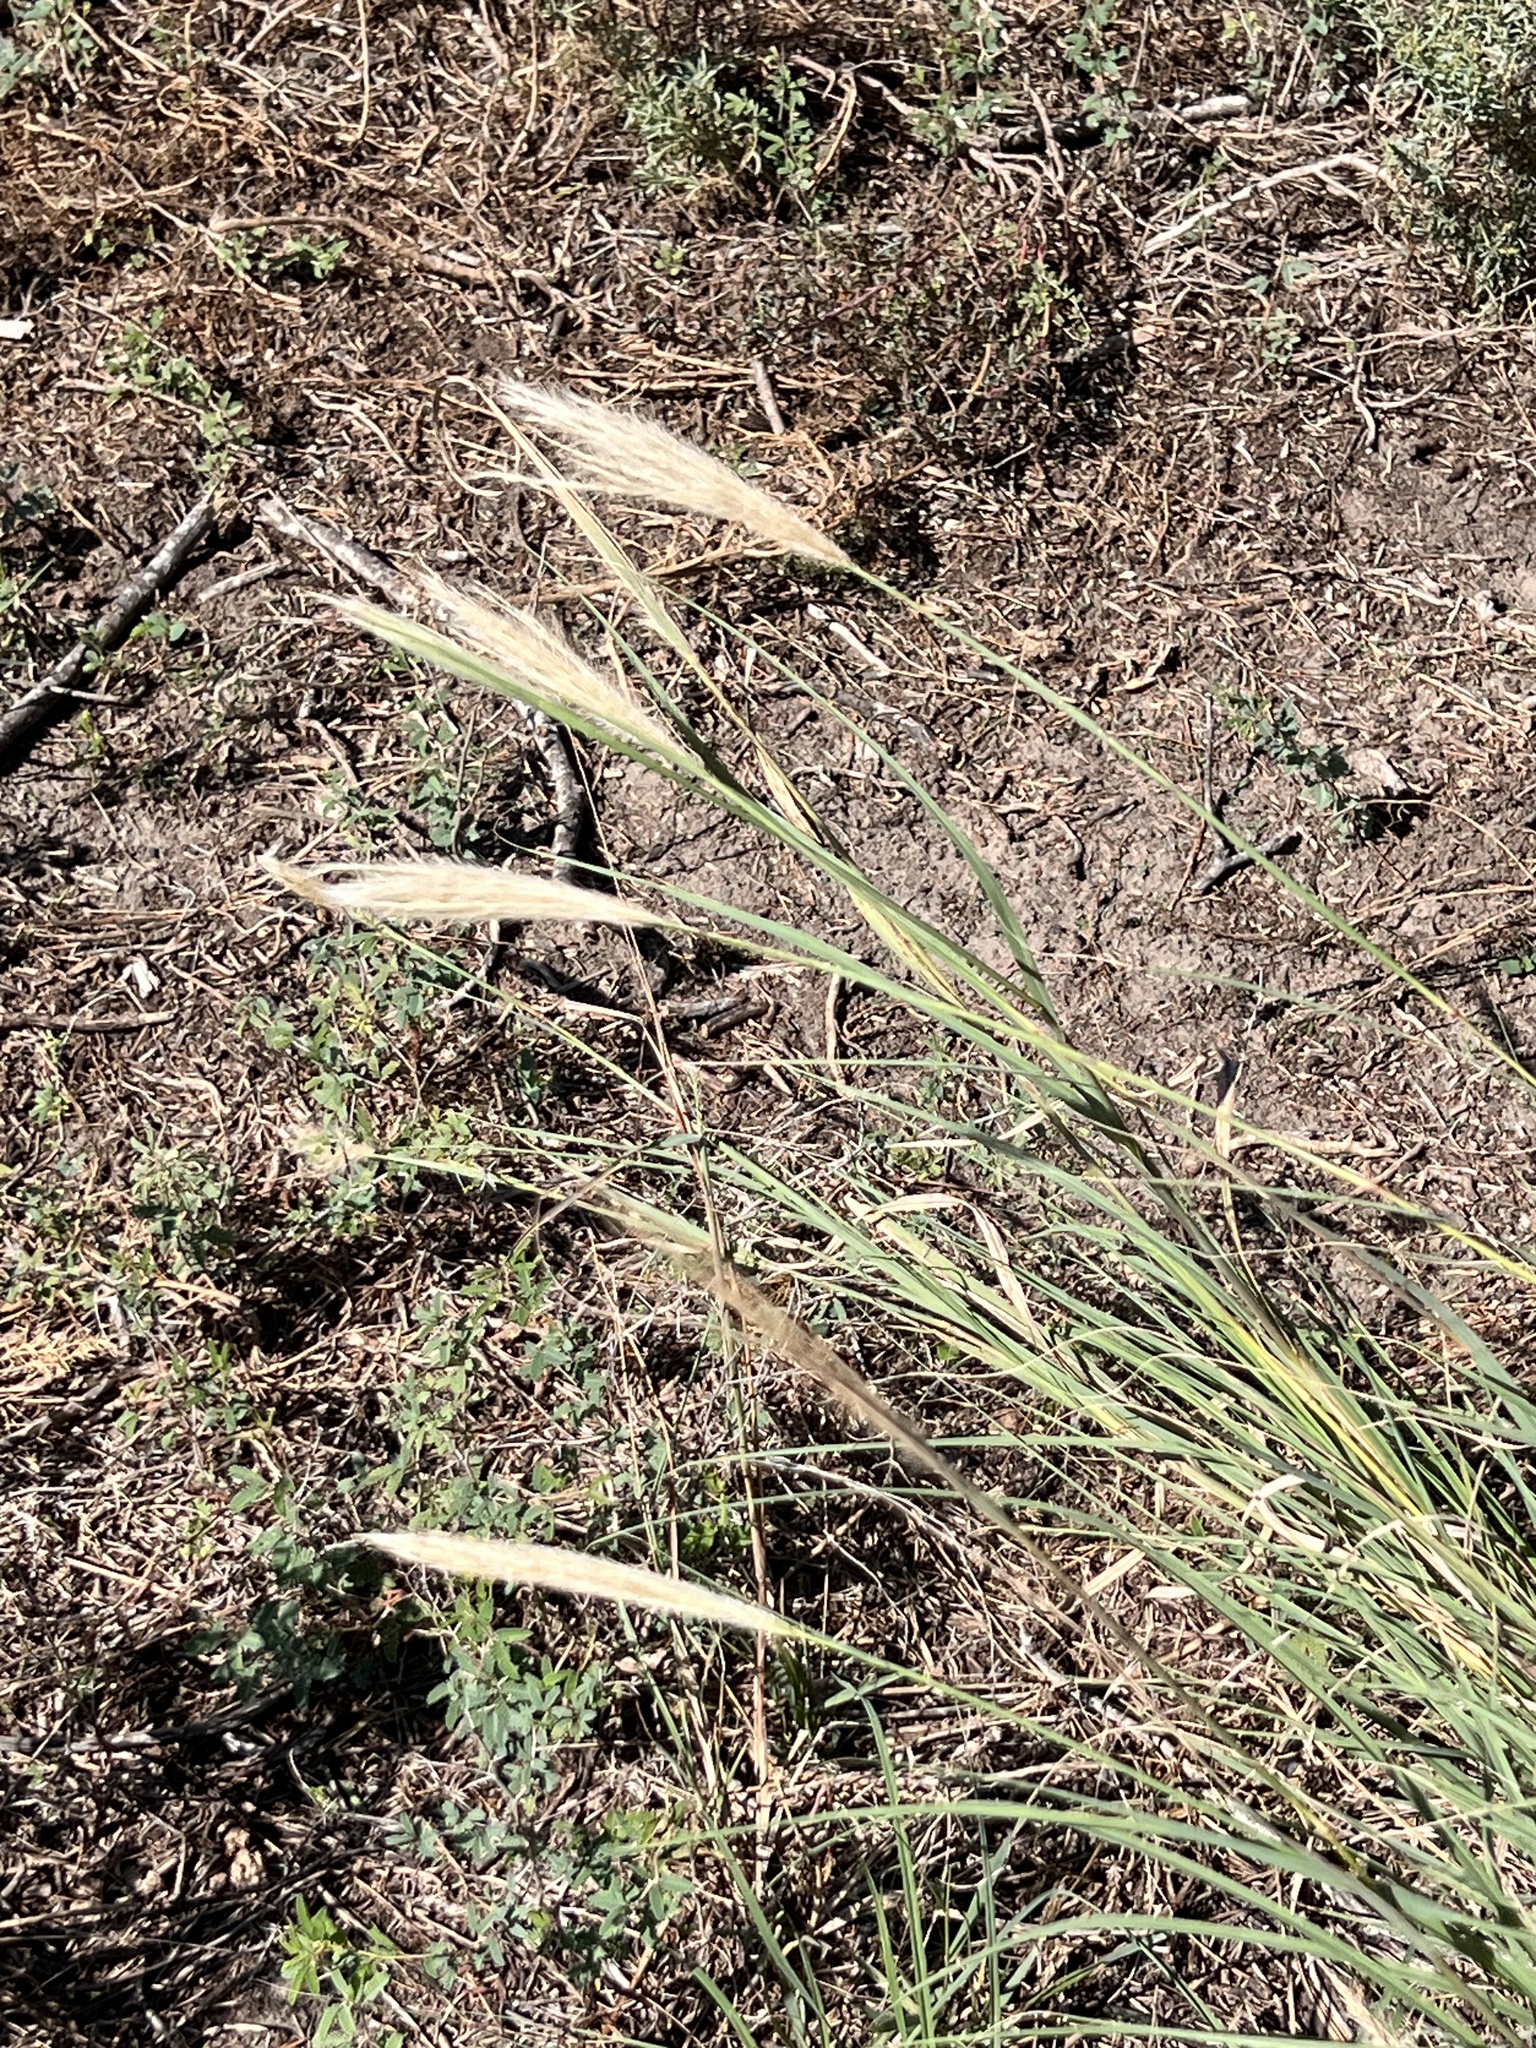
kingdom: Plantae
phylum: Tracheophyta
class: Liliopsida
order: Poales
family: Poaceae
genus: Leptochloa
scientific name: Leptochloa crinita
